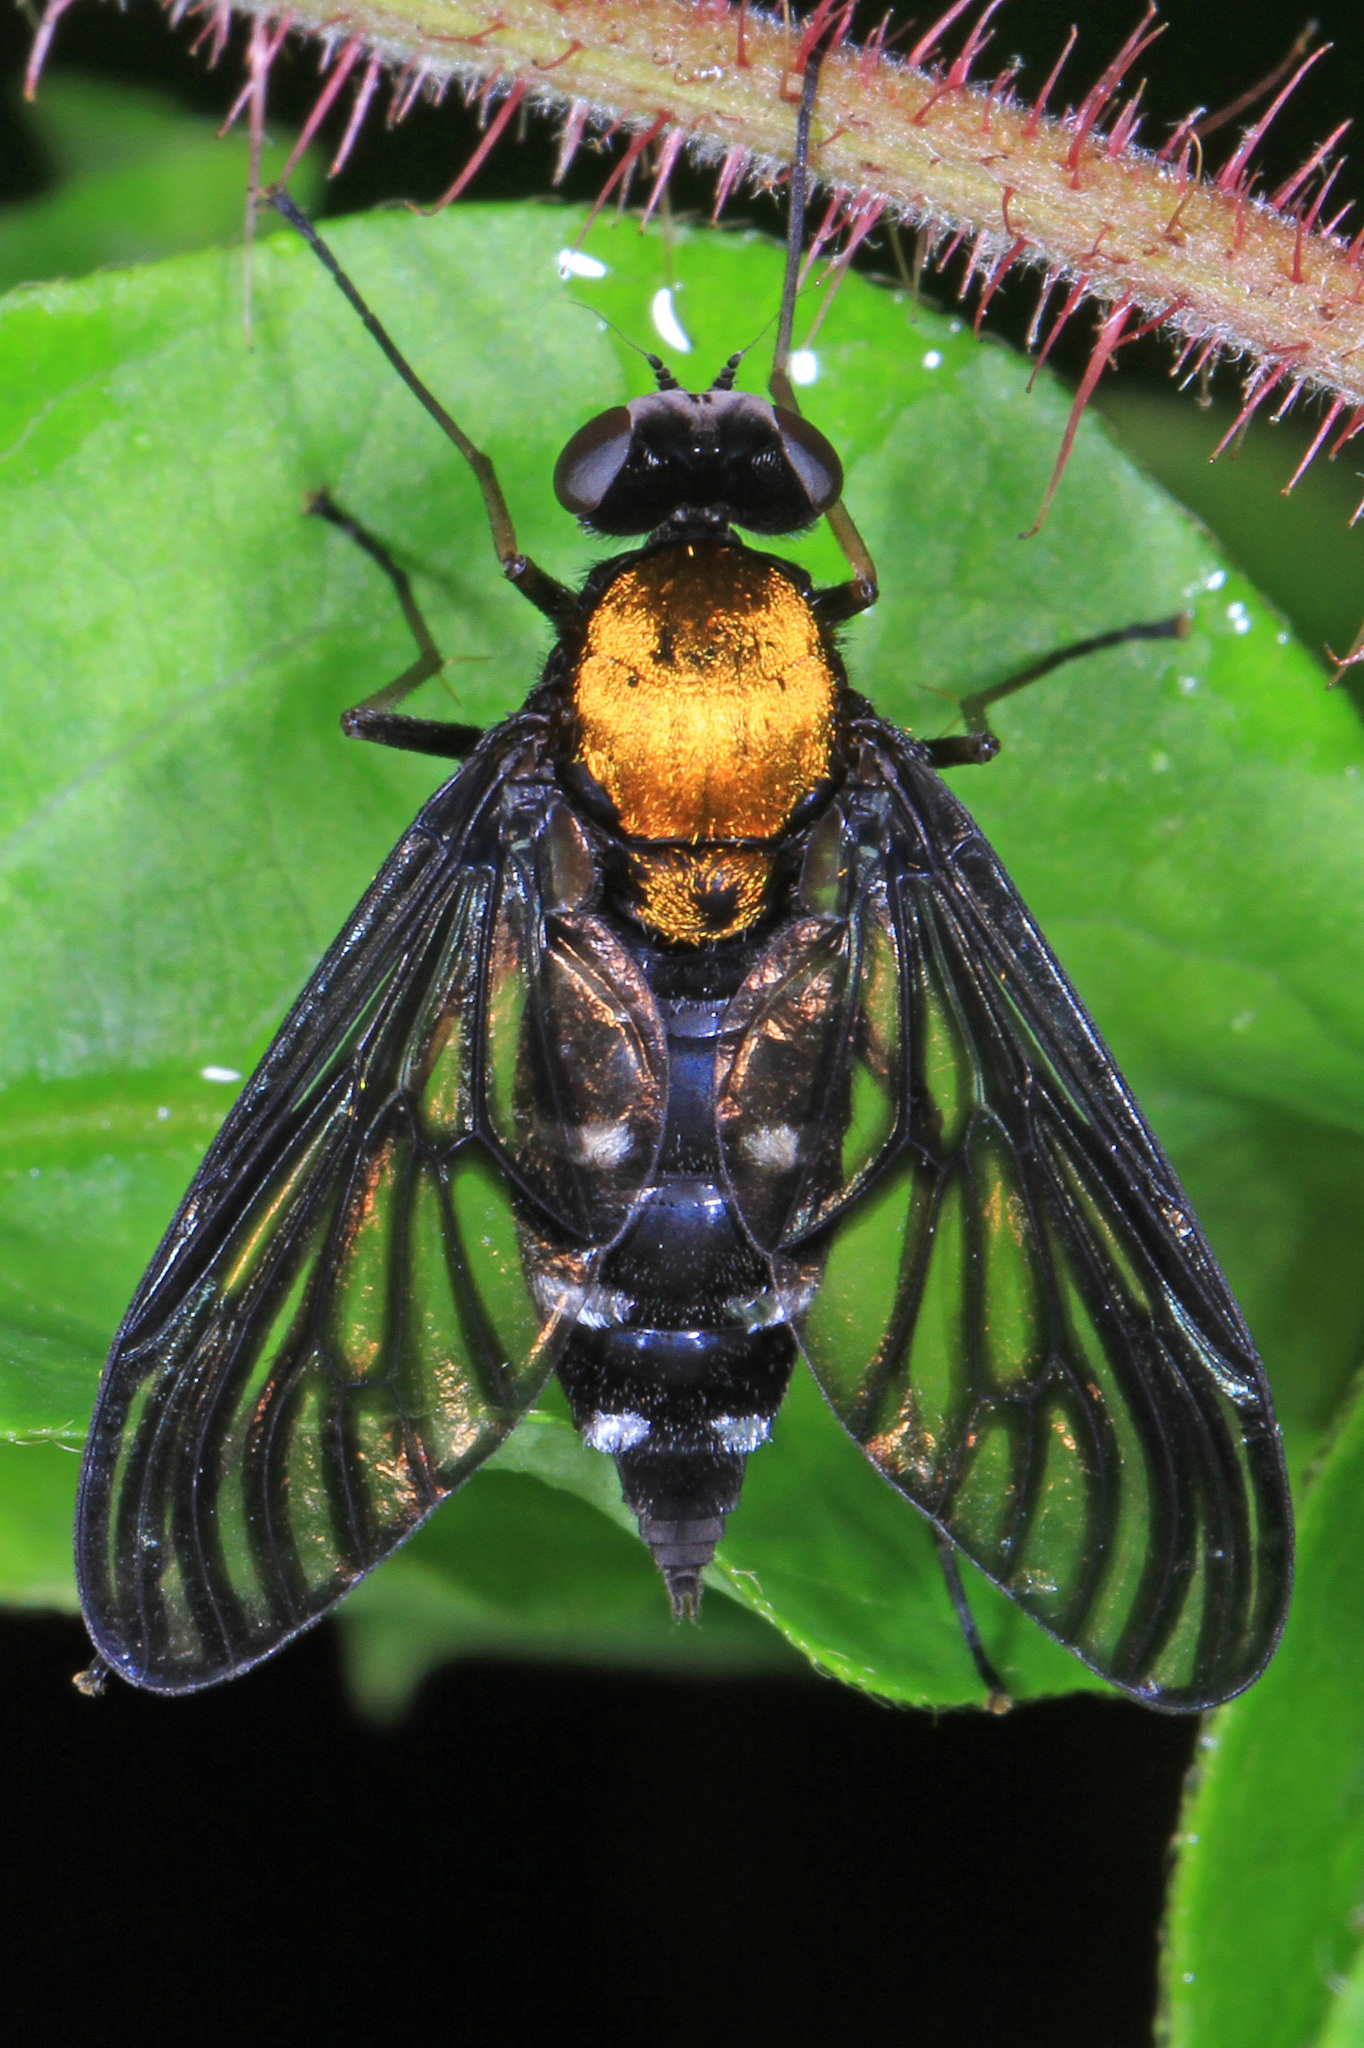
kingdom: Animalia
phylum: Arthropoda
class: Insecta
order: Diptera
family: Rhagionidae
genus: Chrysopilus
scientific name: Chrysopilus thoracicus
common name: Golden-backed snipe fly
